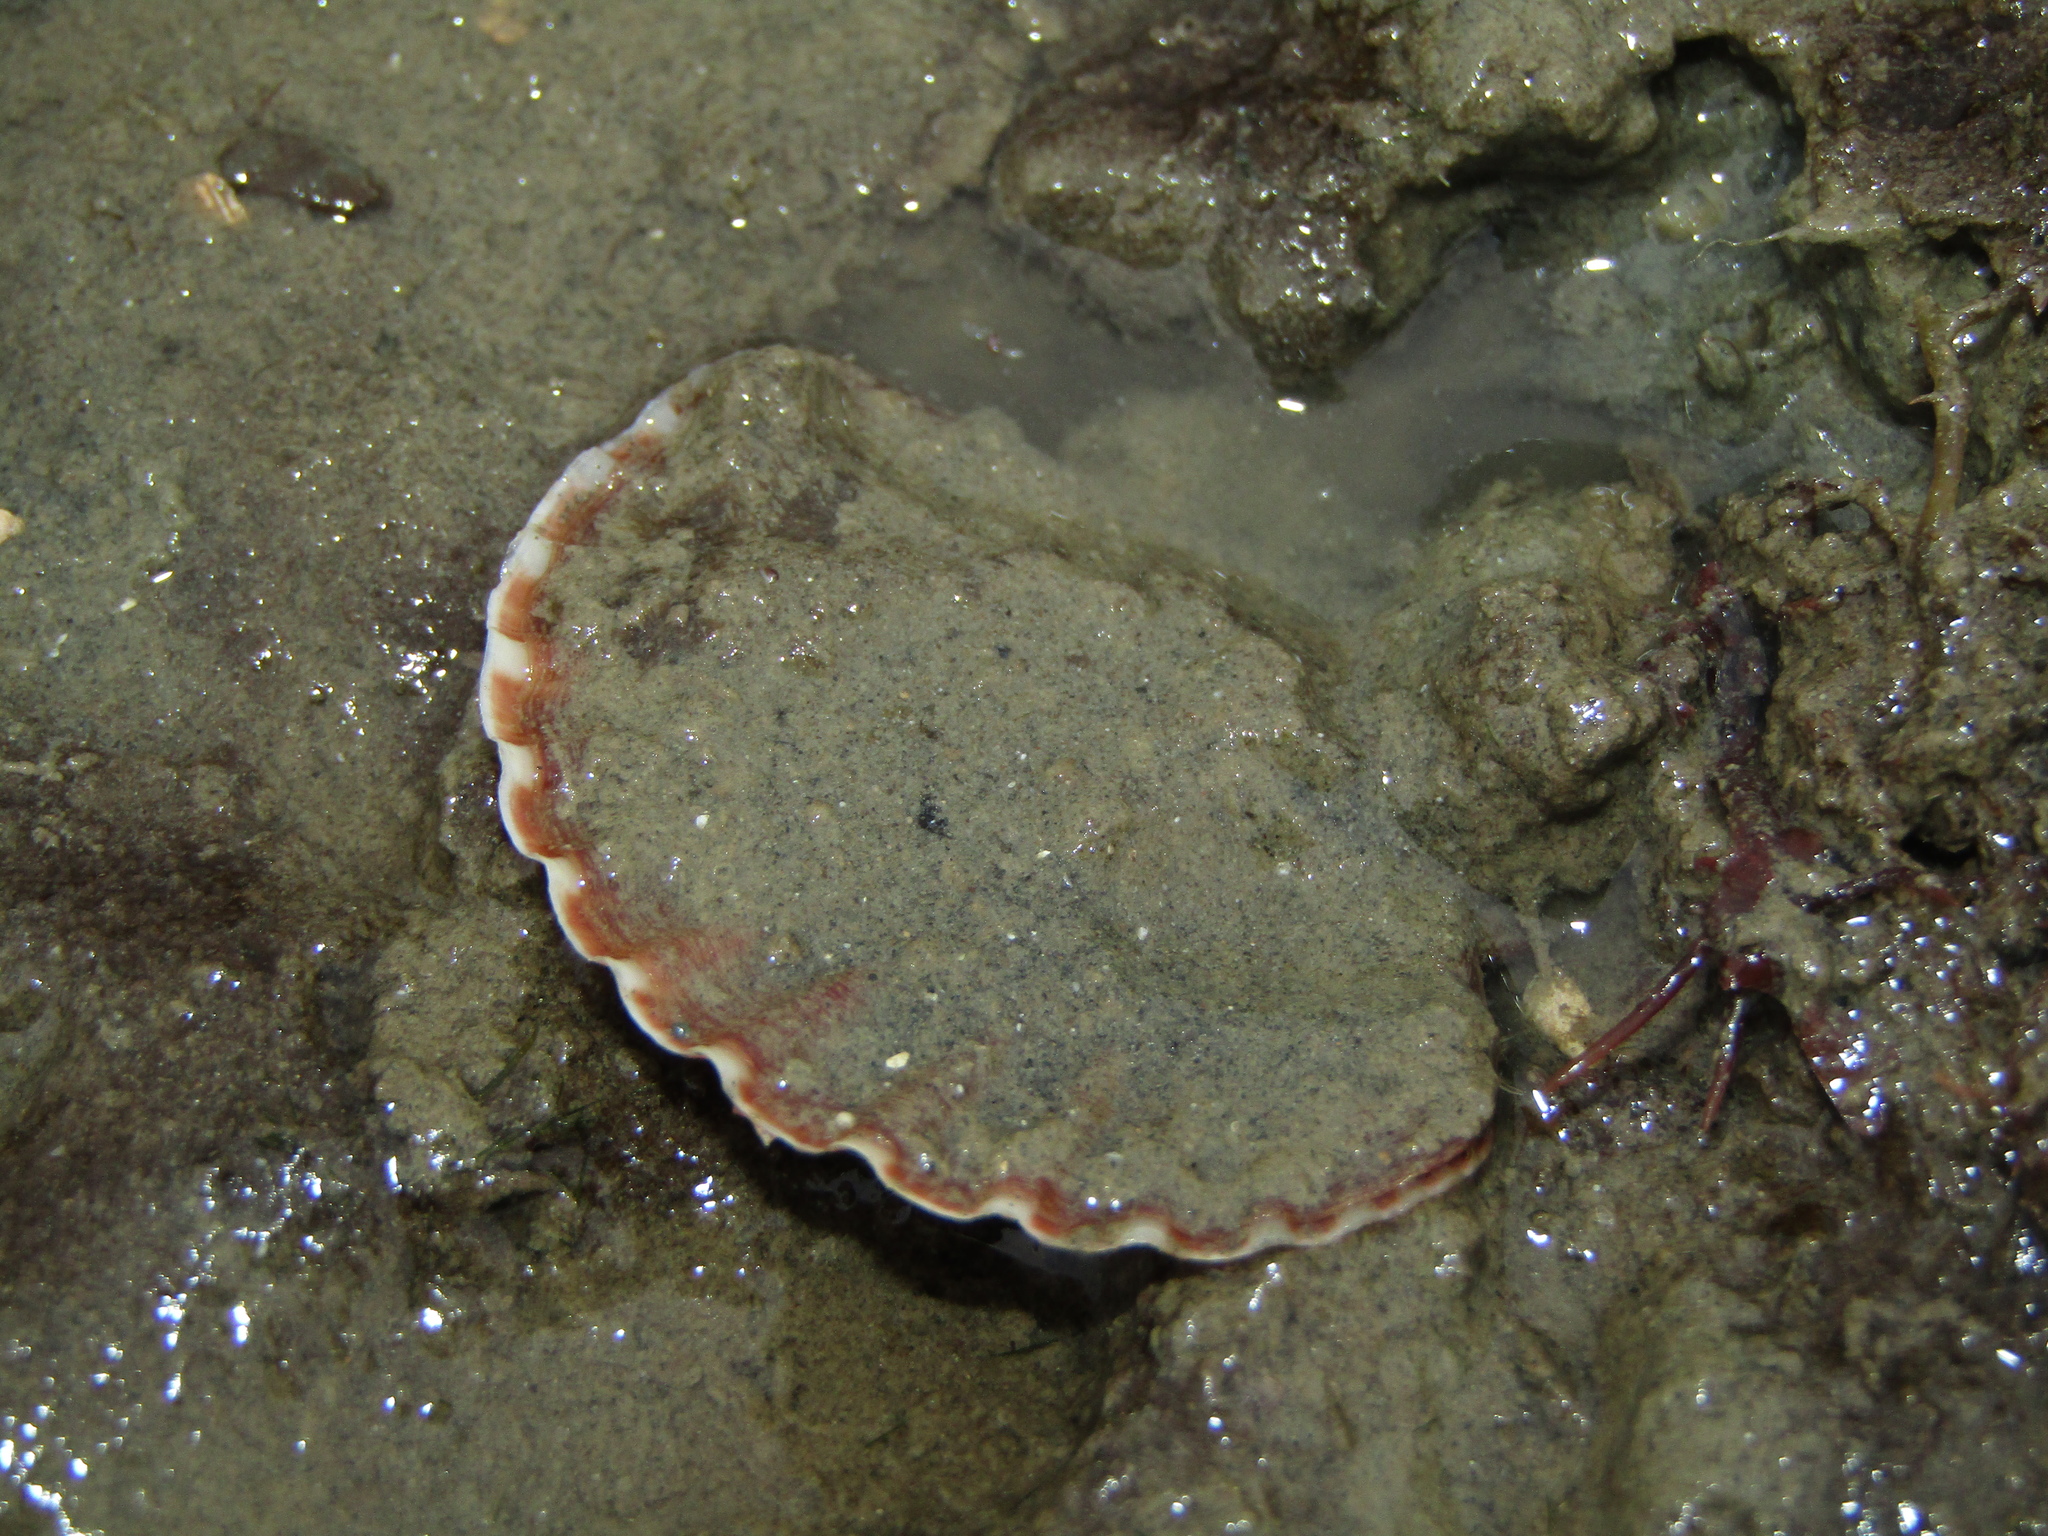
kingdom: Animalia
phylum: Mollusca
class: Bivalvia
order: Pectinida
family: Pectinidae
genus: Pecten
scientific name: Pecten novaezelandiae
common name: New zealand scallop
